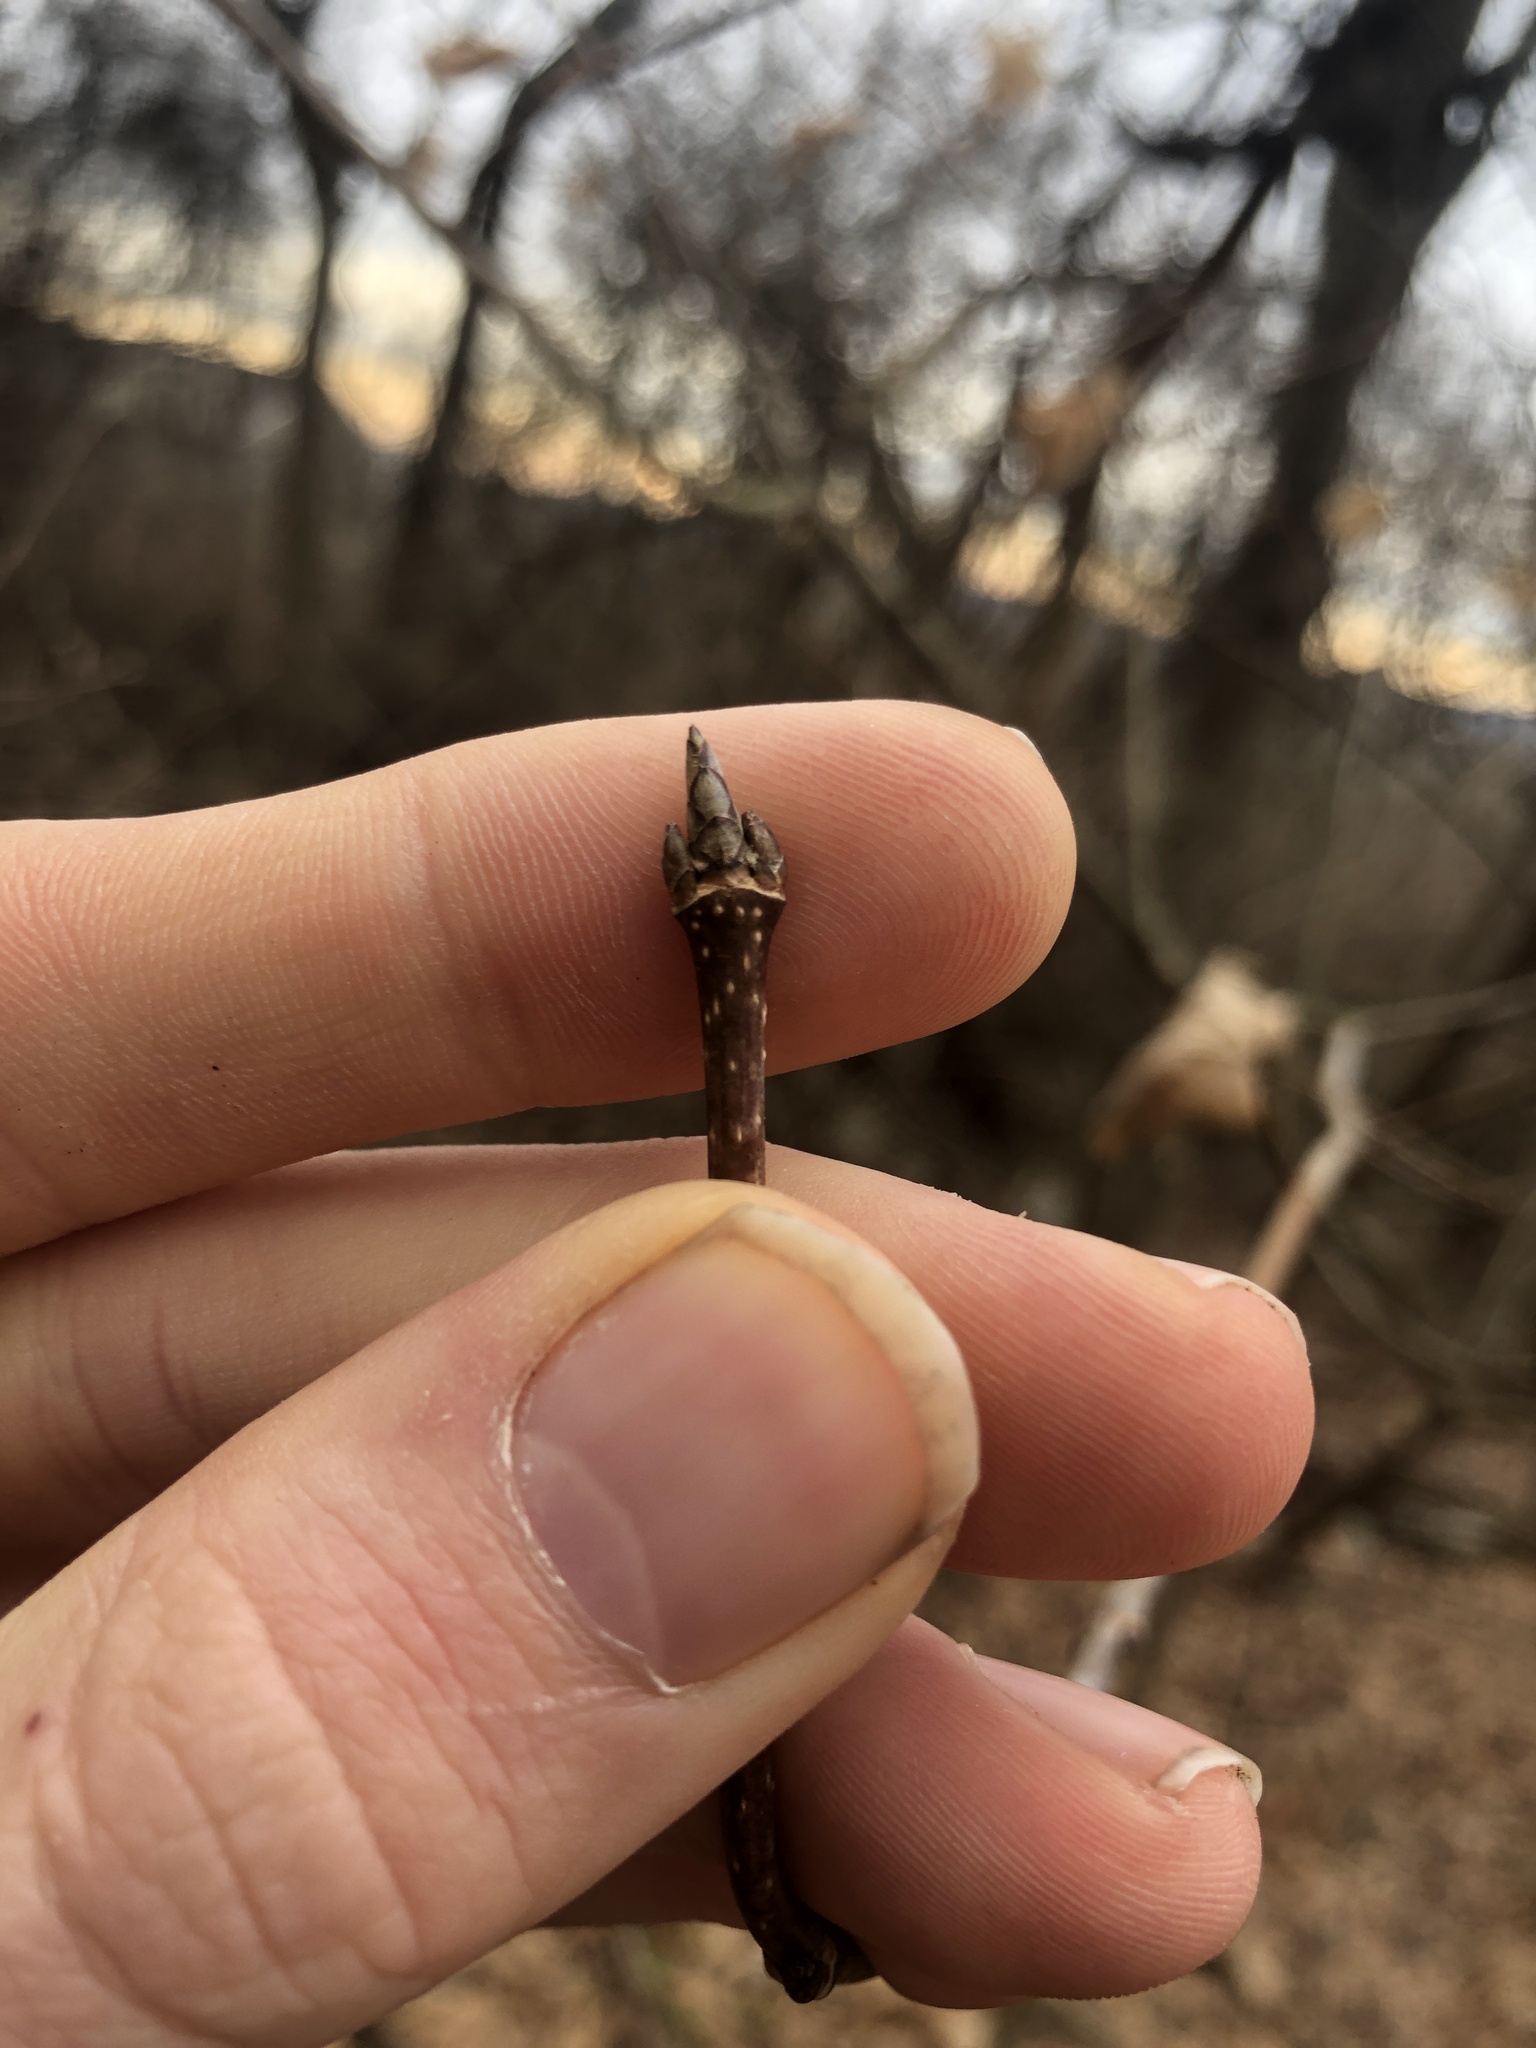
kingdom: Plantae
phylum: Tracheophyta
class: Magnoliopsida
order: Sapindales
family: Sapindaceae
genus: Acer
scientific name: Acer saccharum
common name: Sugar maple
